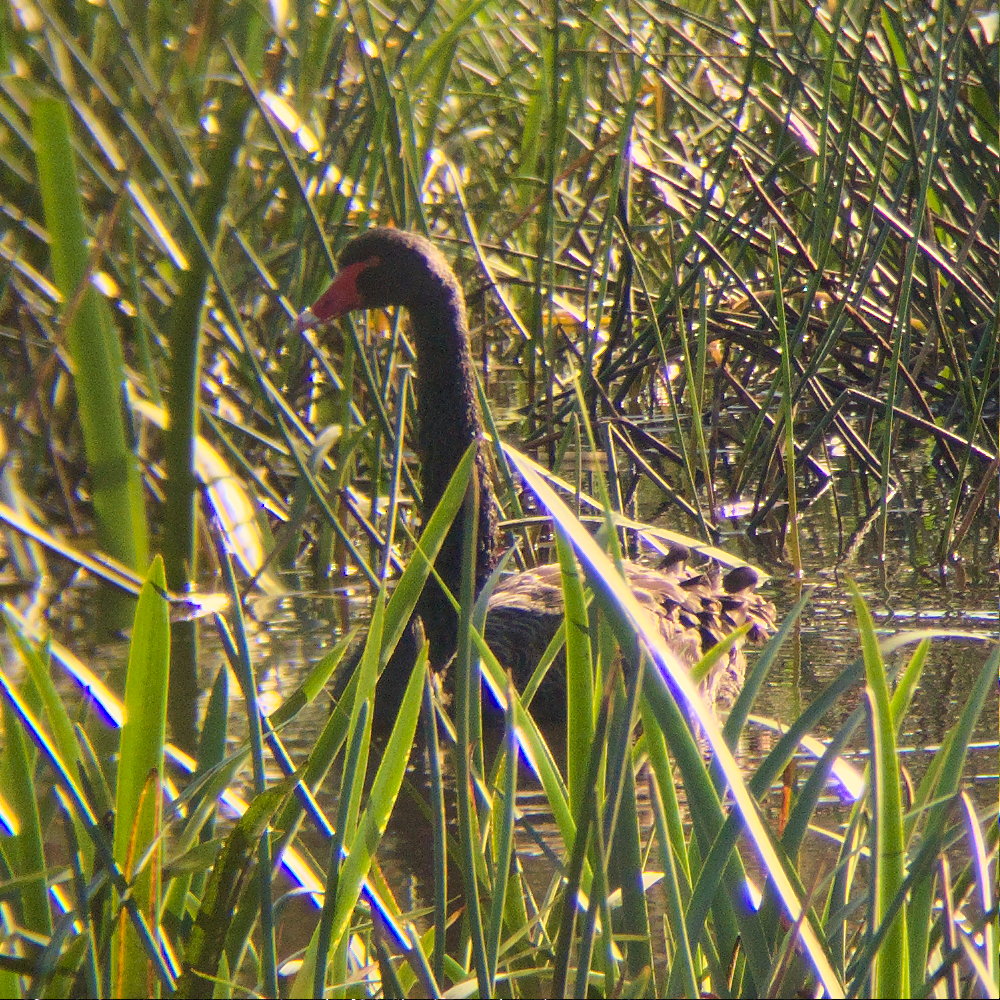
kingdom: Animalia
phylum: Chordata
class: Aves
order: Anseriformes
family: Anatidae
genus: Cygnus
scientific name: Cygnus atratus
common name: Black swan
